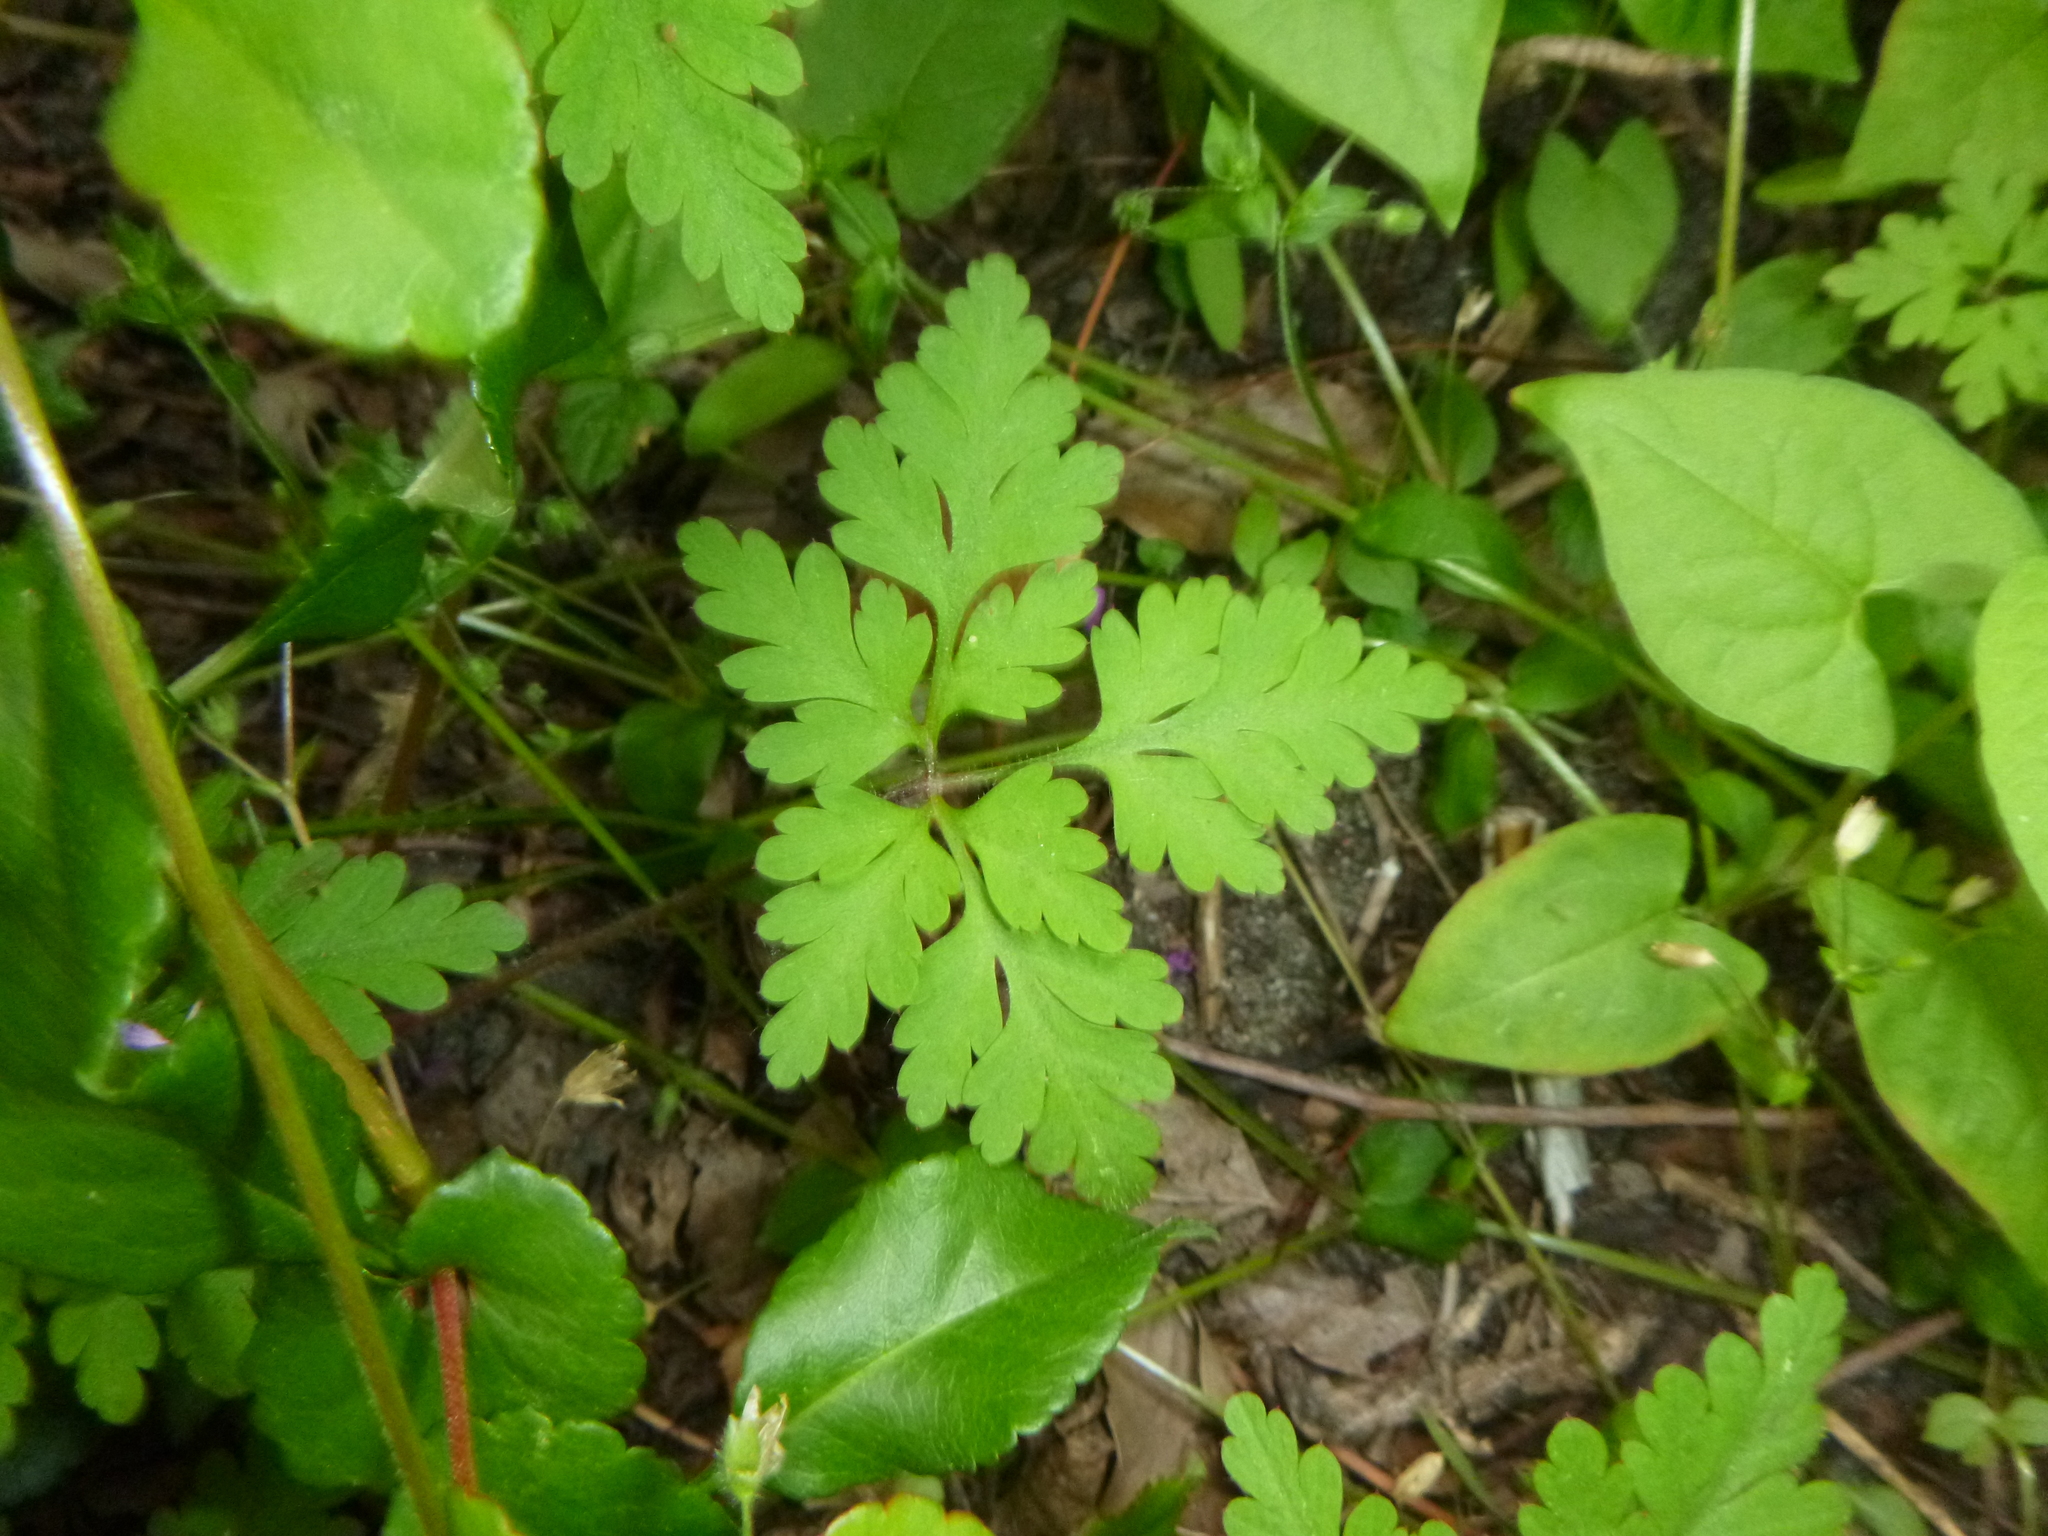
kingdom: Plantae
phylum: Tracheophyta
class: Magnoliopsida
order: Geraniales
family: Geraniaceae
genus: Geranium
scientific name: Geranium robertianum
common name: Herb-robert
